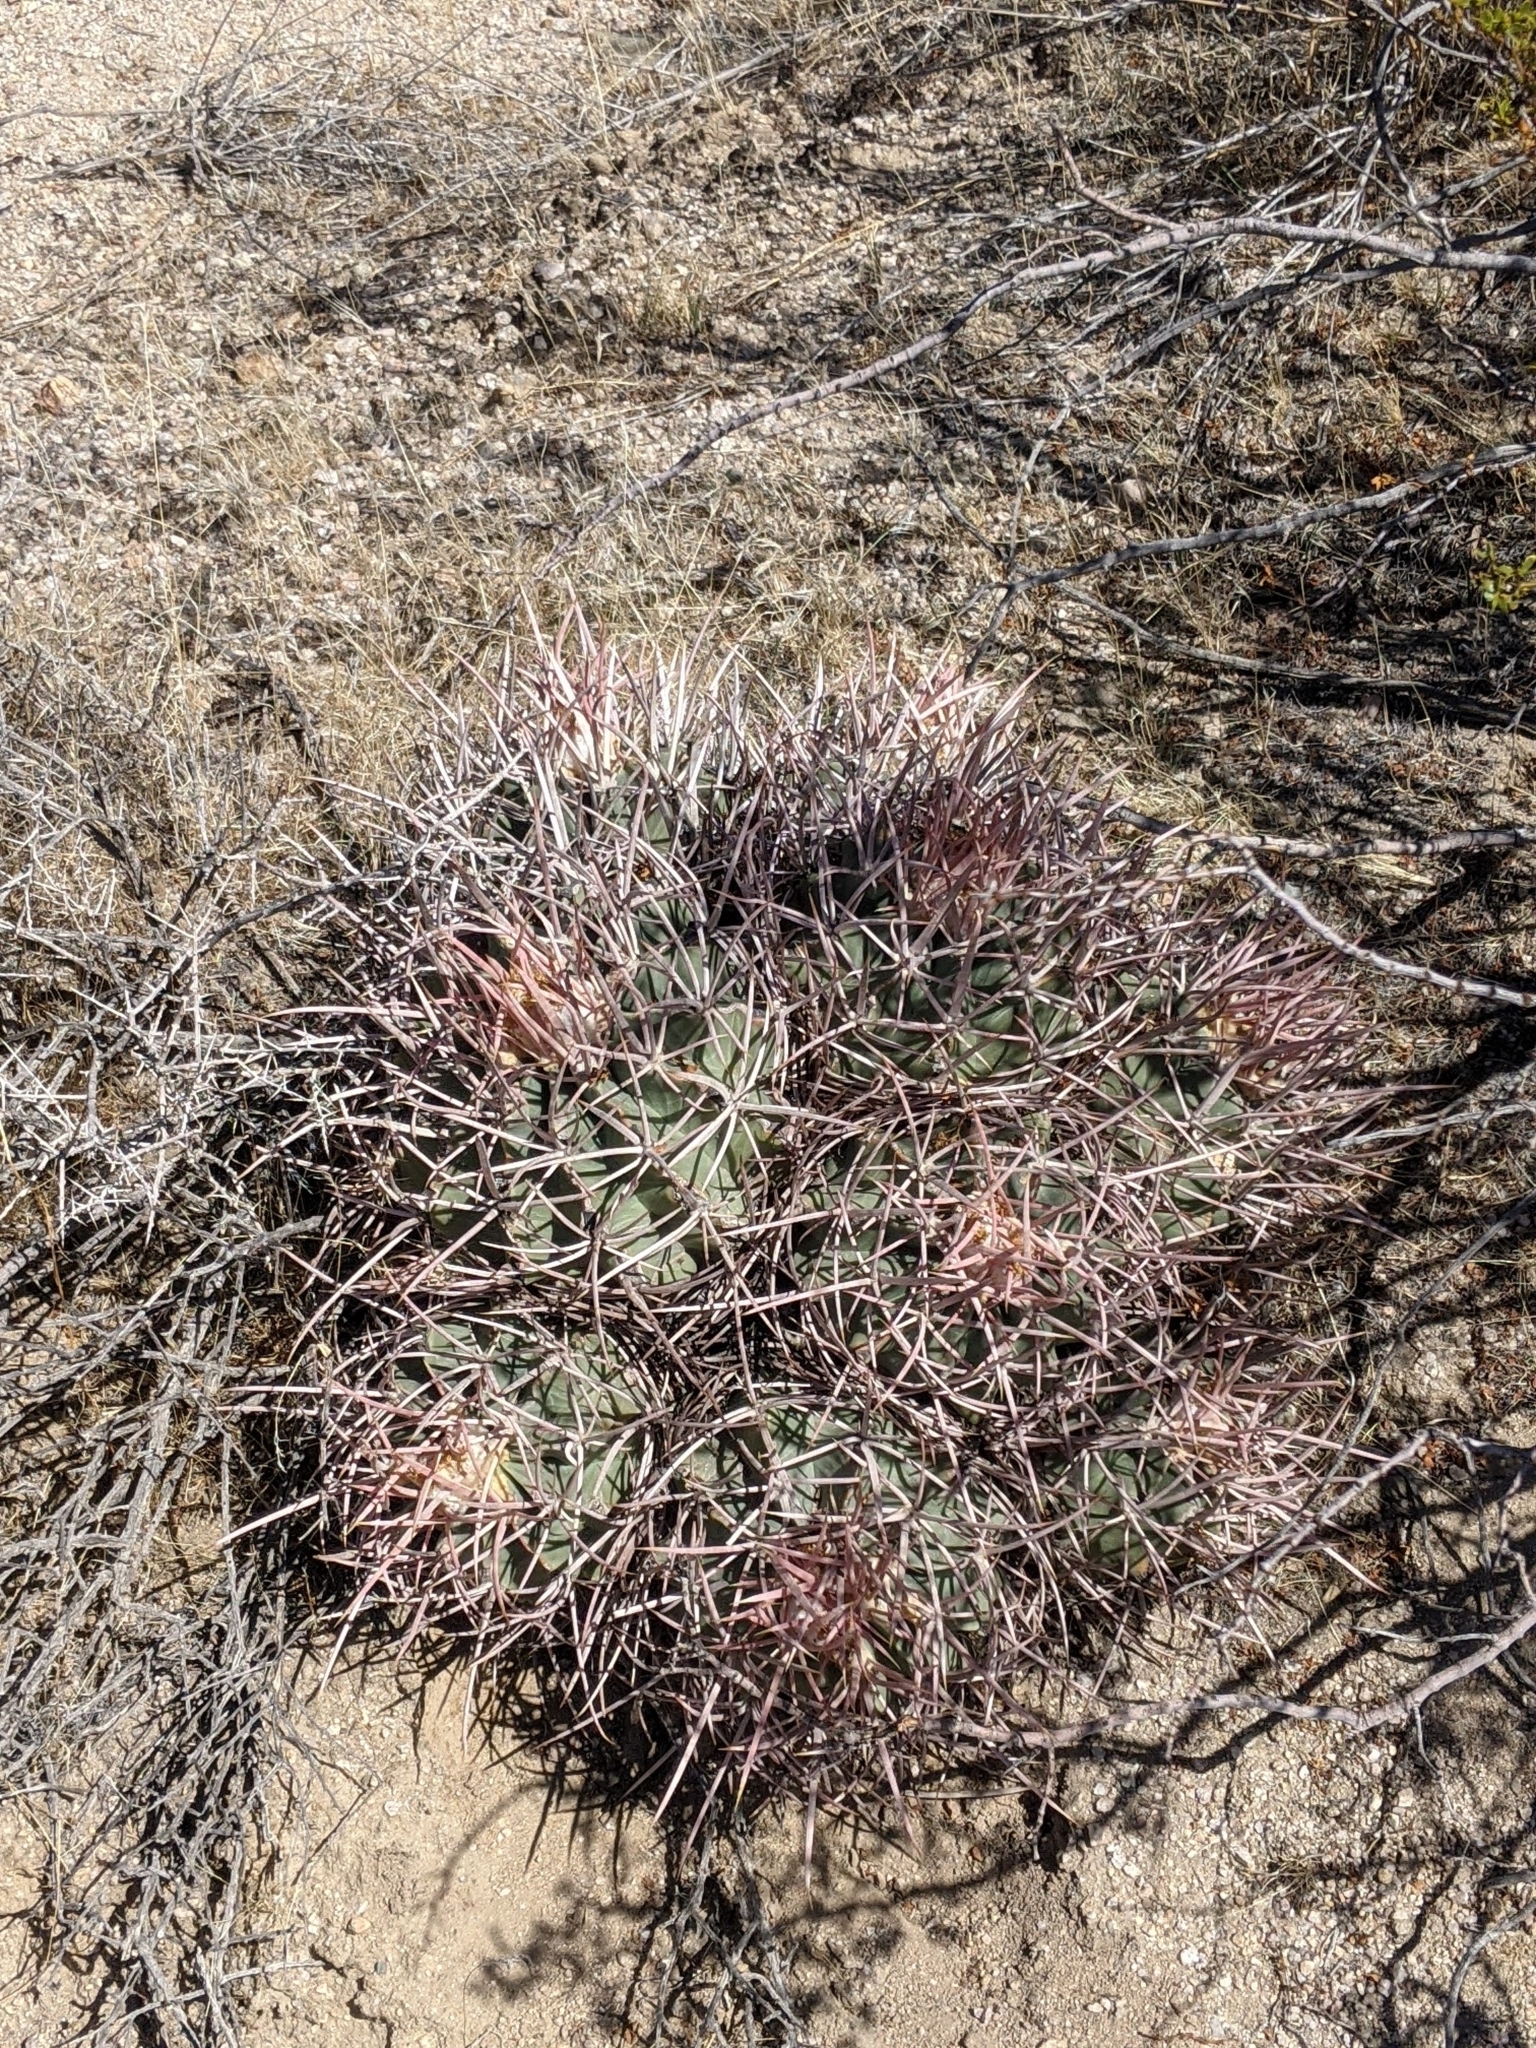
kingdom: Plantae
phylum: Tracheophyta
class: Magnoliopsida
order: Caryophyllales
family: Cactaceae
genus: Echinocactus
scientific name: Echinocactus polycephalus
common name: Cottontop cactus
